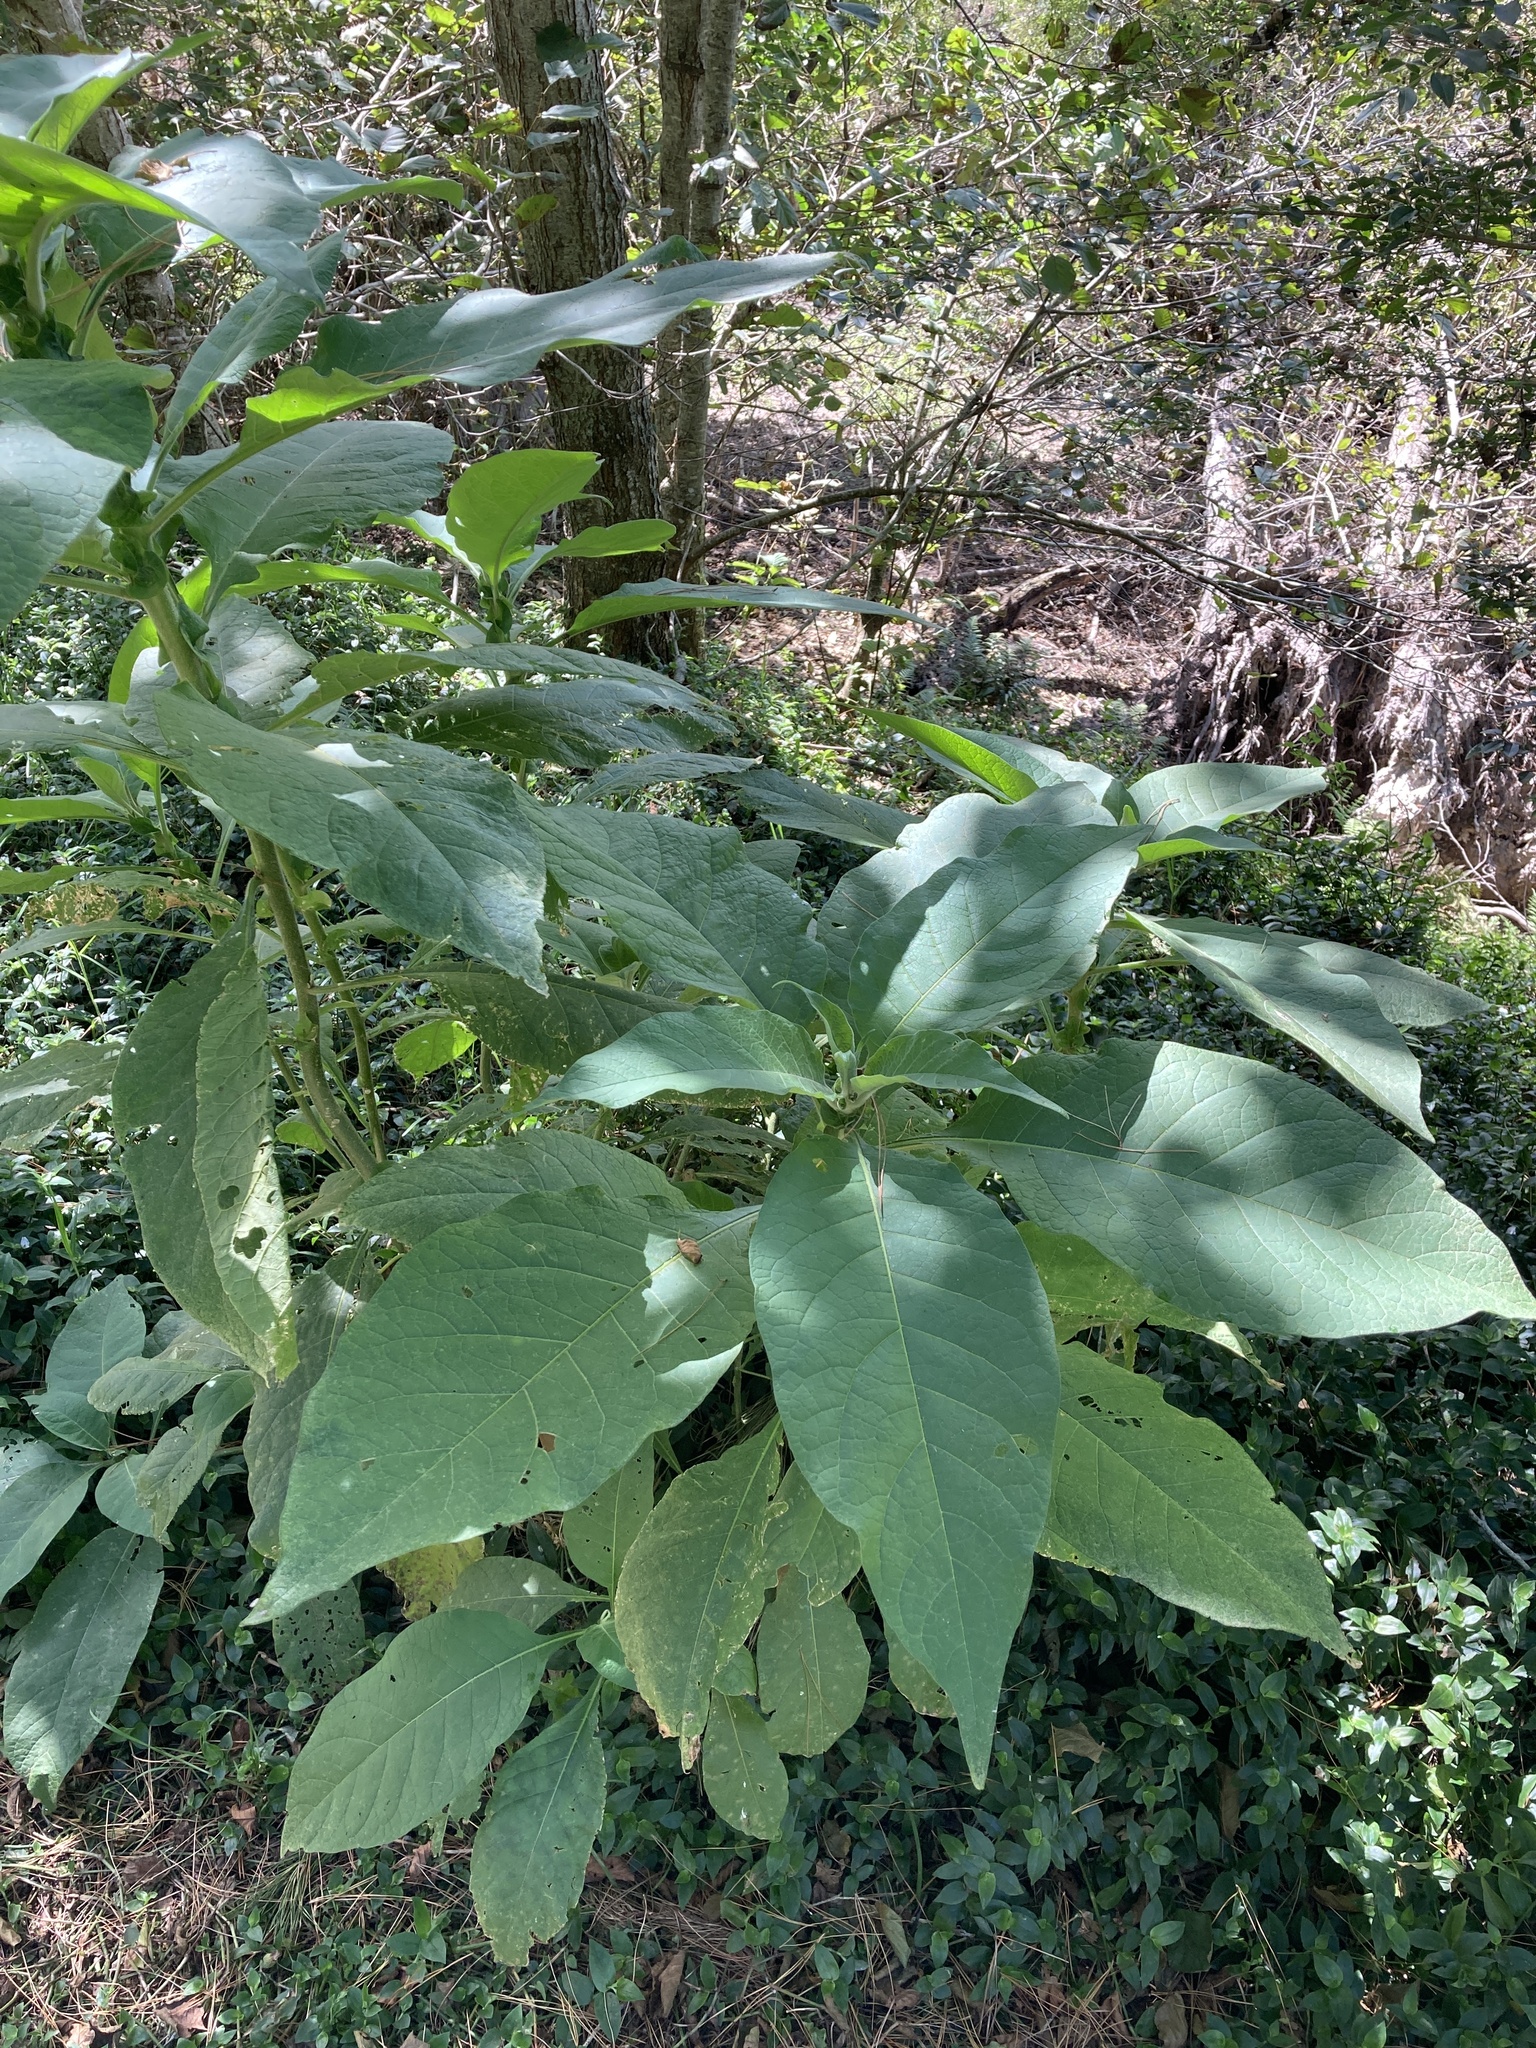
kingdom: Plantae
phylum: Tracheophyta
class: Magnoliopsida
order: Solanales
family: Solanaceae
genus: Solanum
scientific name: Solanum mauritianum
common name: Earleaf nightshade
